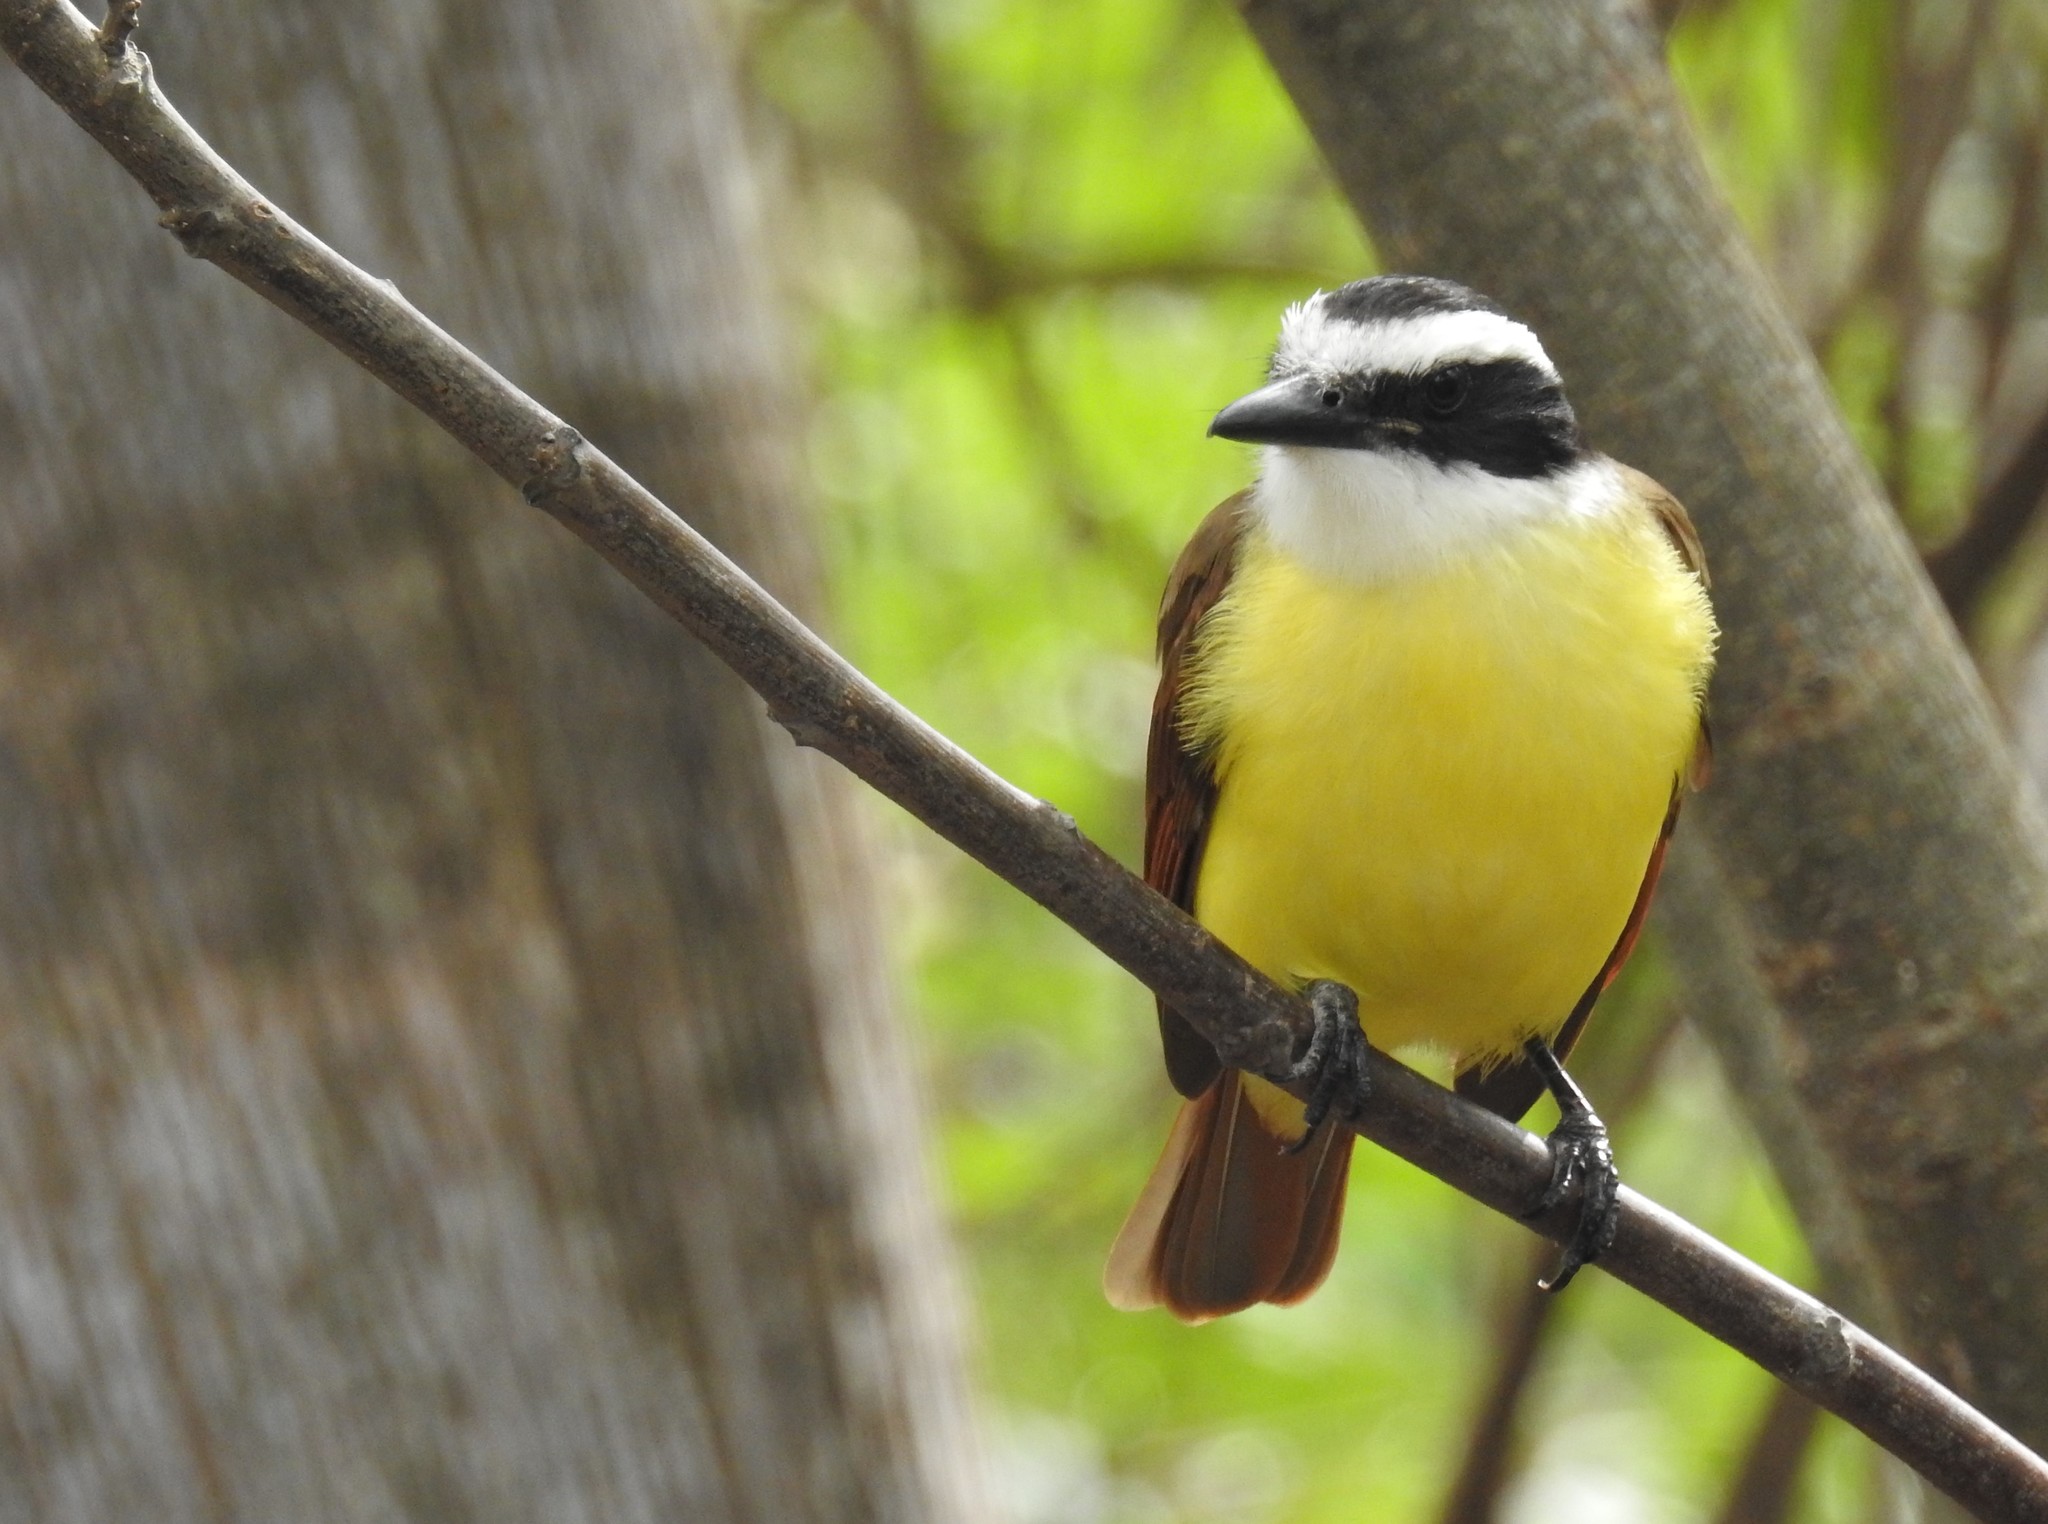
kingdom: Animalia
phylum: Chordata
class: Aves
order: Passeriformes
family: Tyrannidae
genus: Pitangus
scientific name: Pitangus sulphuratus
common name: Great kiskadee
